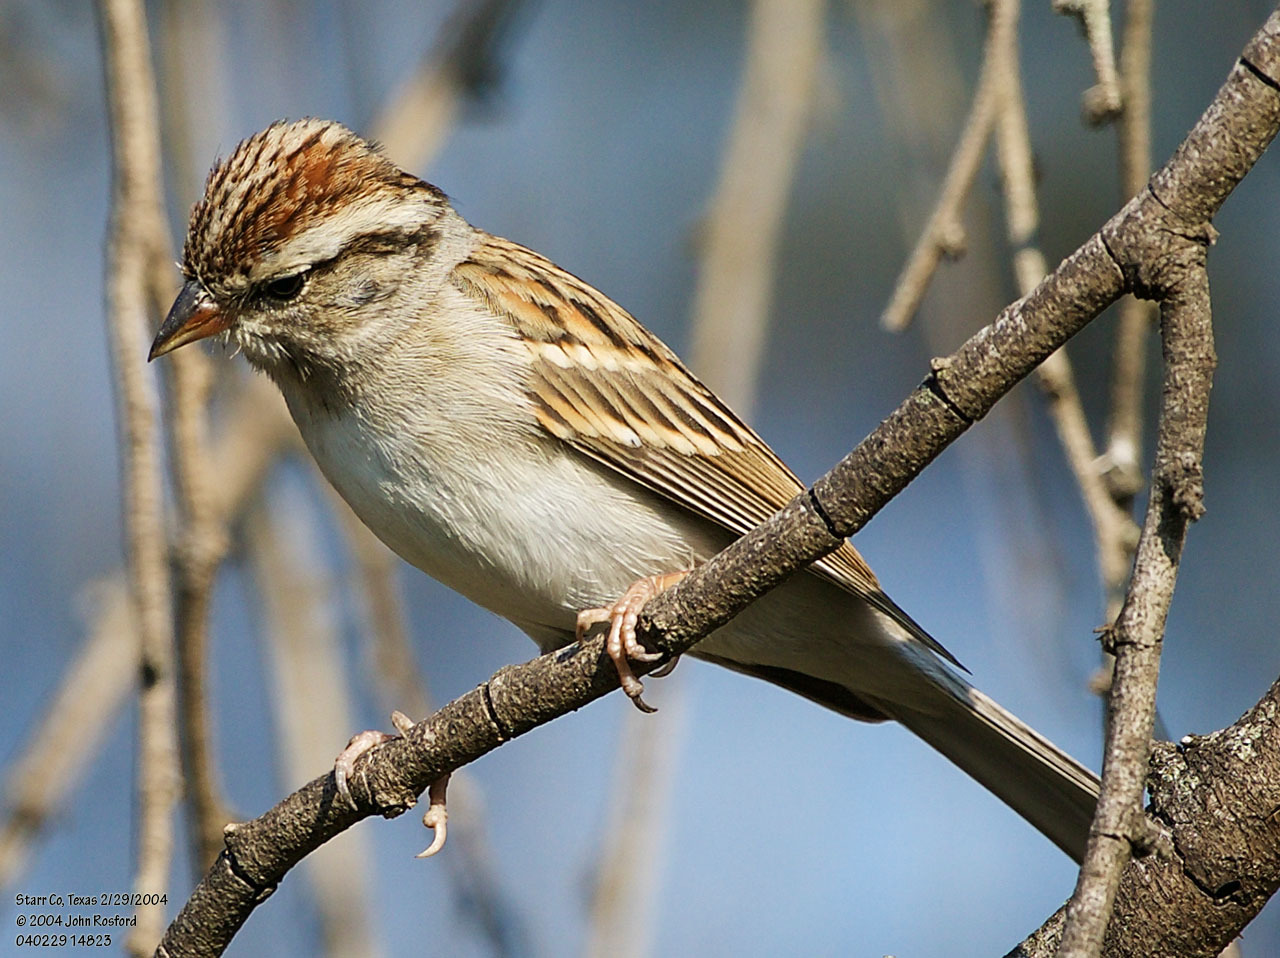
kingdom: Animalia
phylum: Chordata
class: Aves
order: Passeriformes
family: Passerellidae
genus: Spizella
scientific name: Spizella passerina
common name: Chipping sparrow
